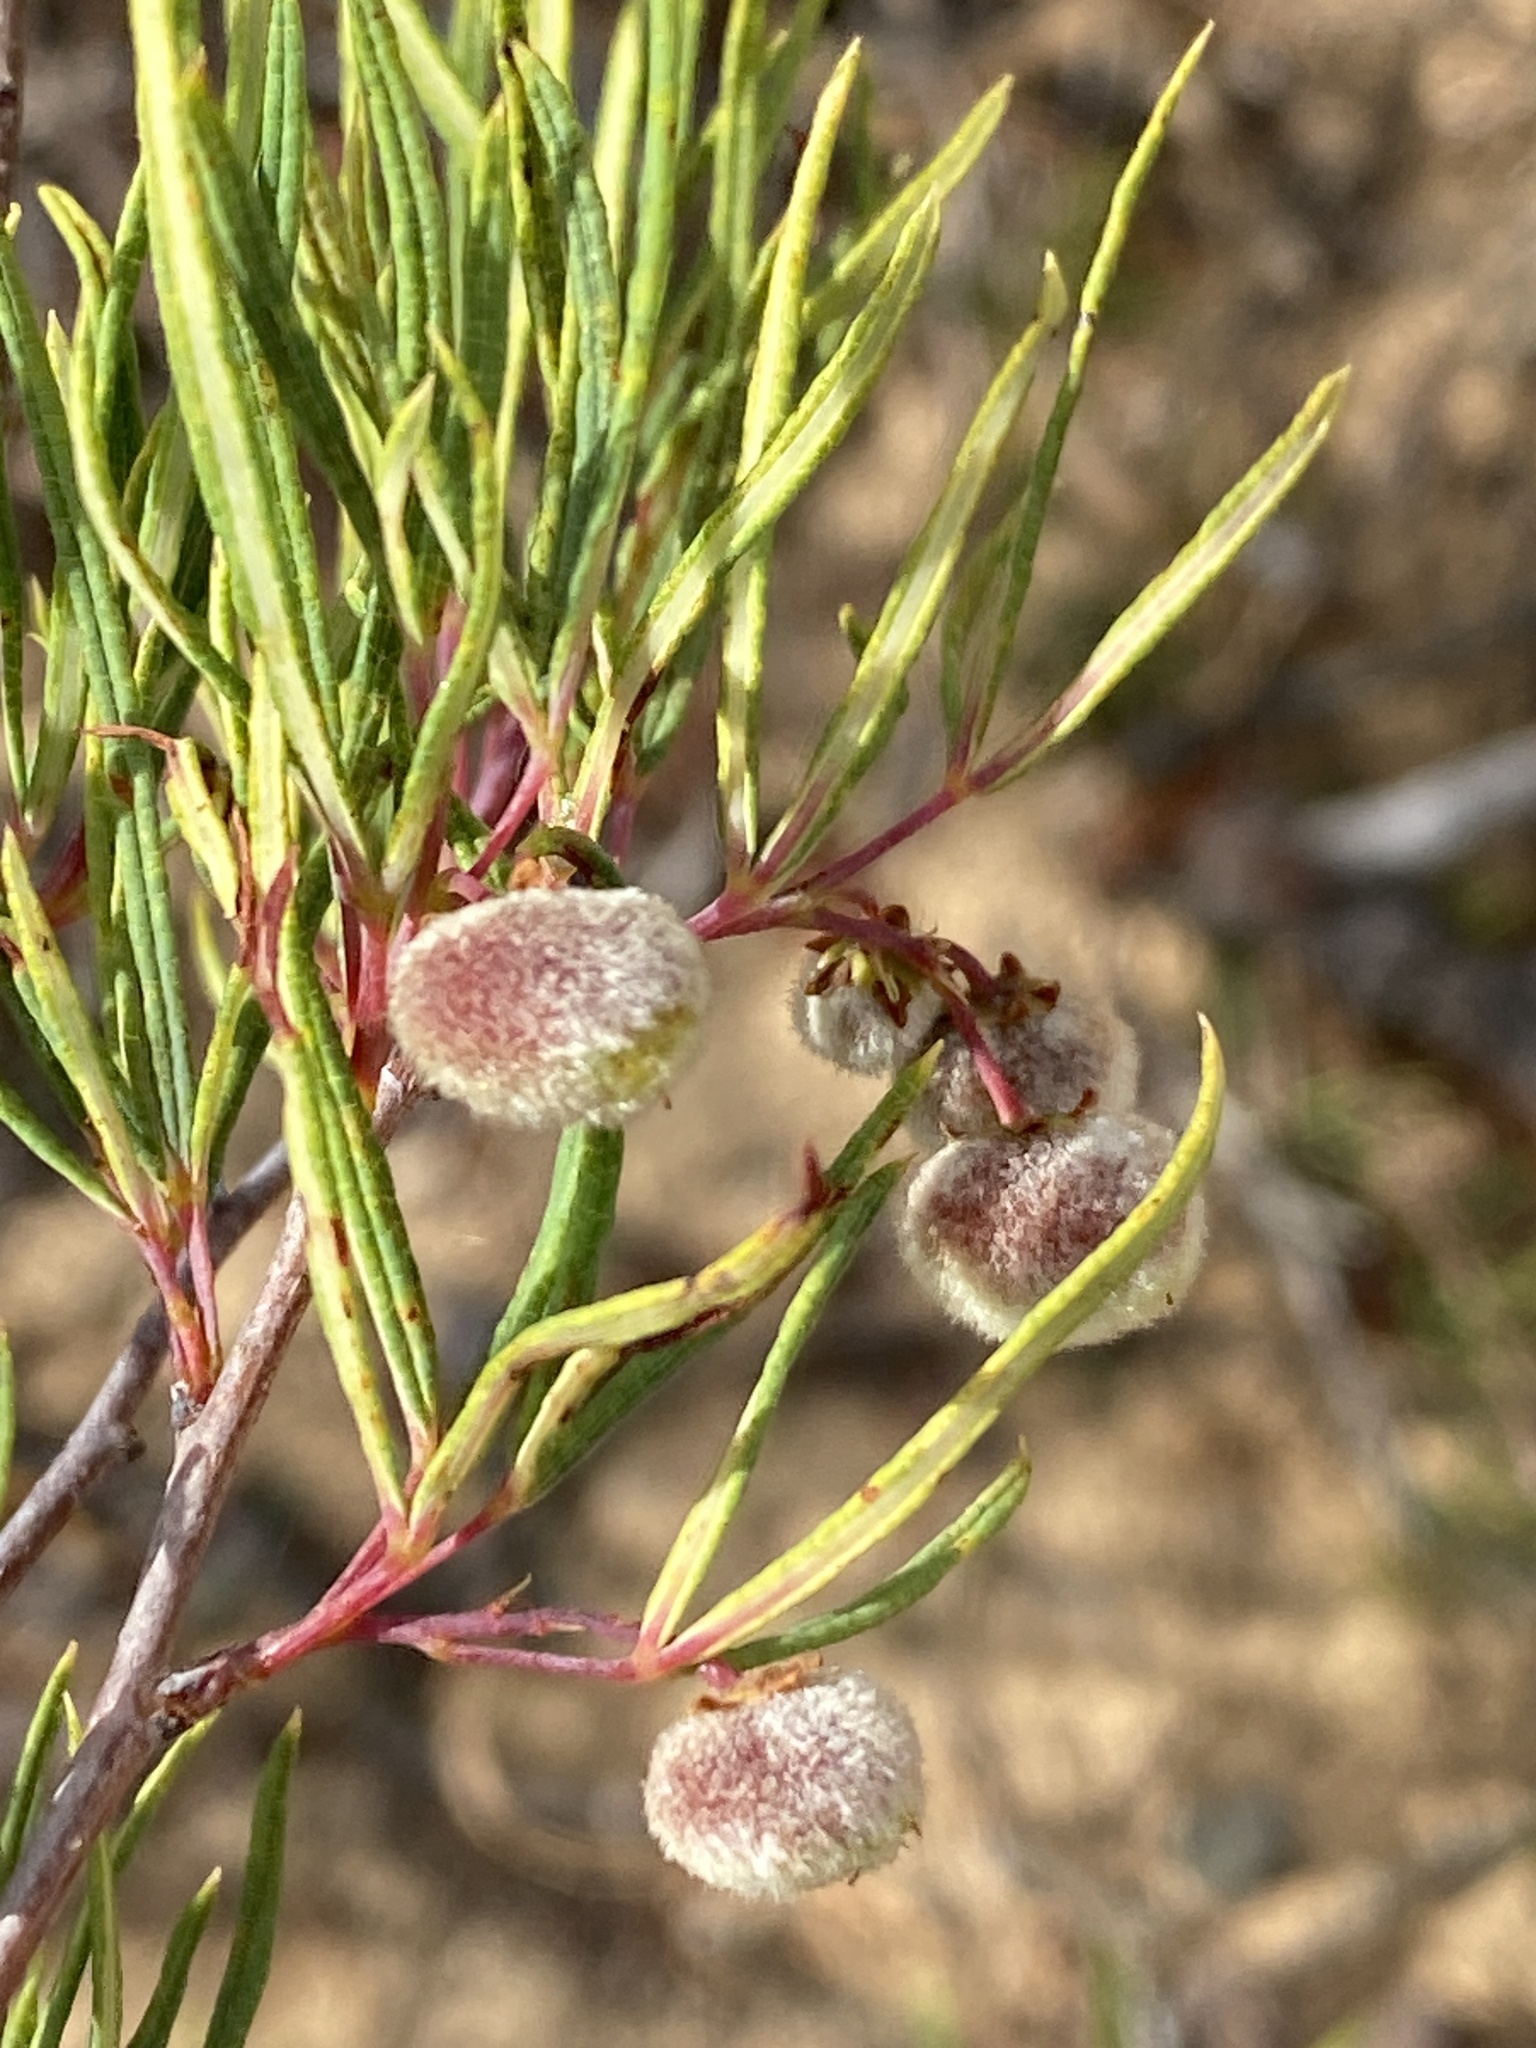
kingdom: Plantae
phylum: Tracheophyta
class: Magnoliopsida
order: Sapindales
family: Anacardiaceae
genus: Searsia
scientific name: Searsia rosmarinifolia
